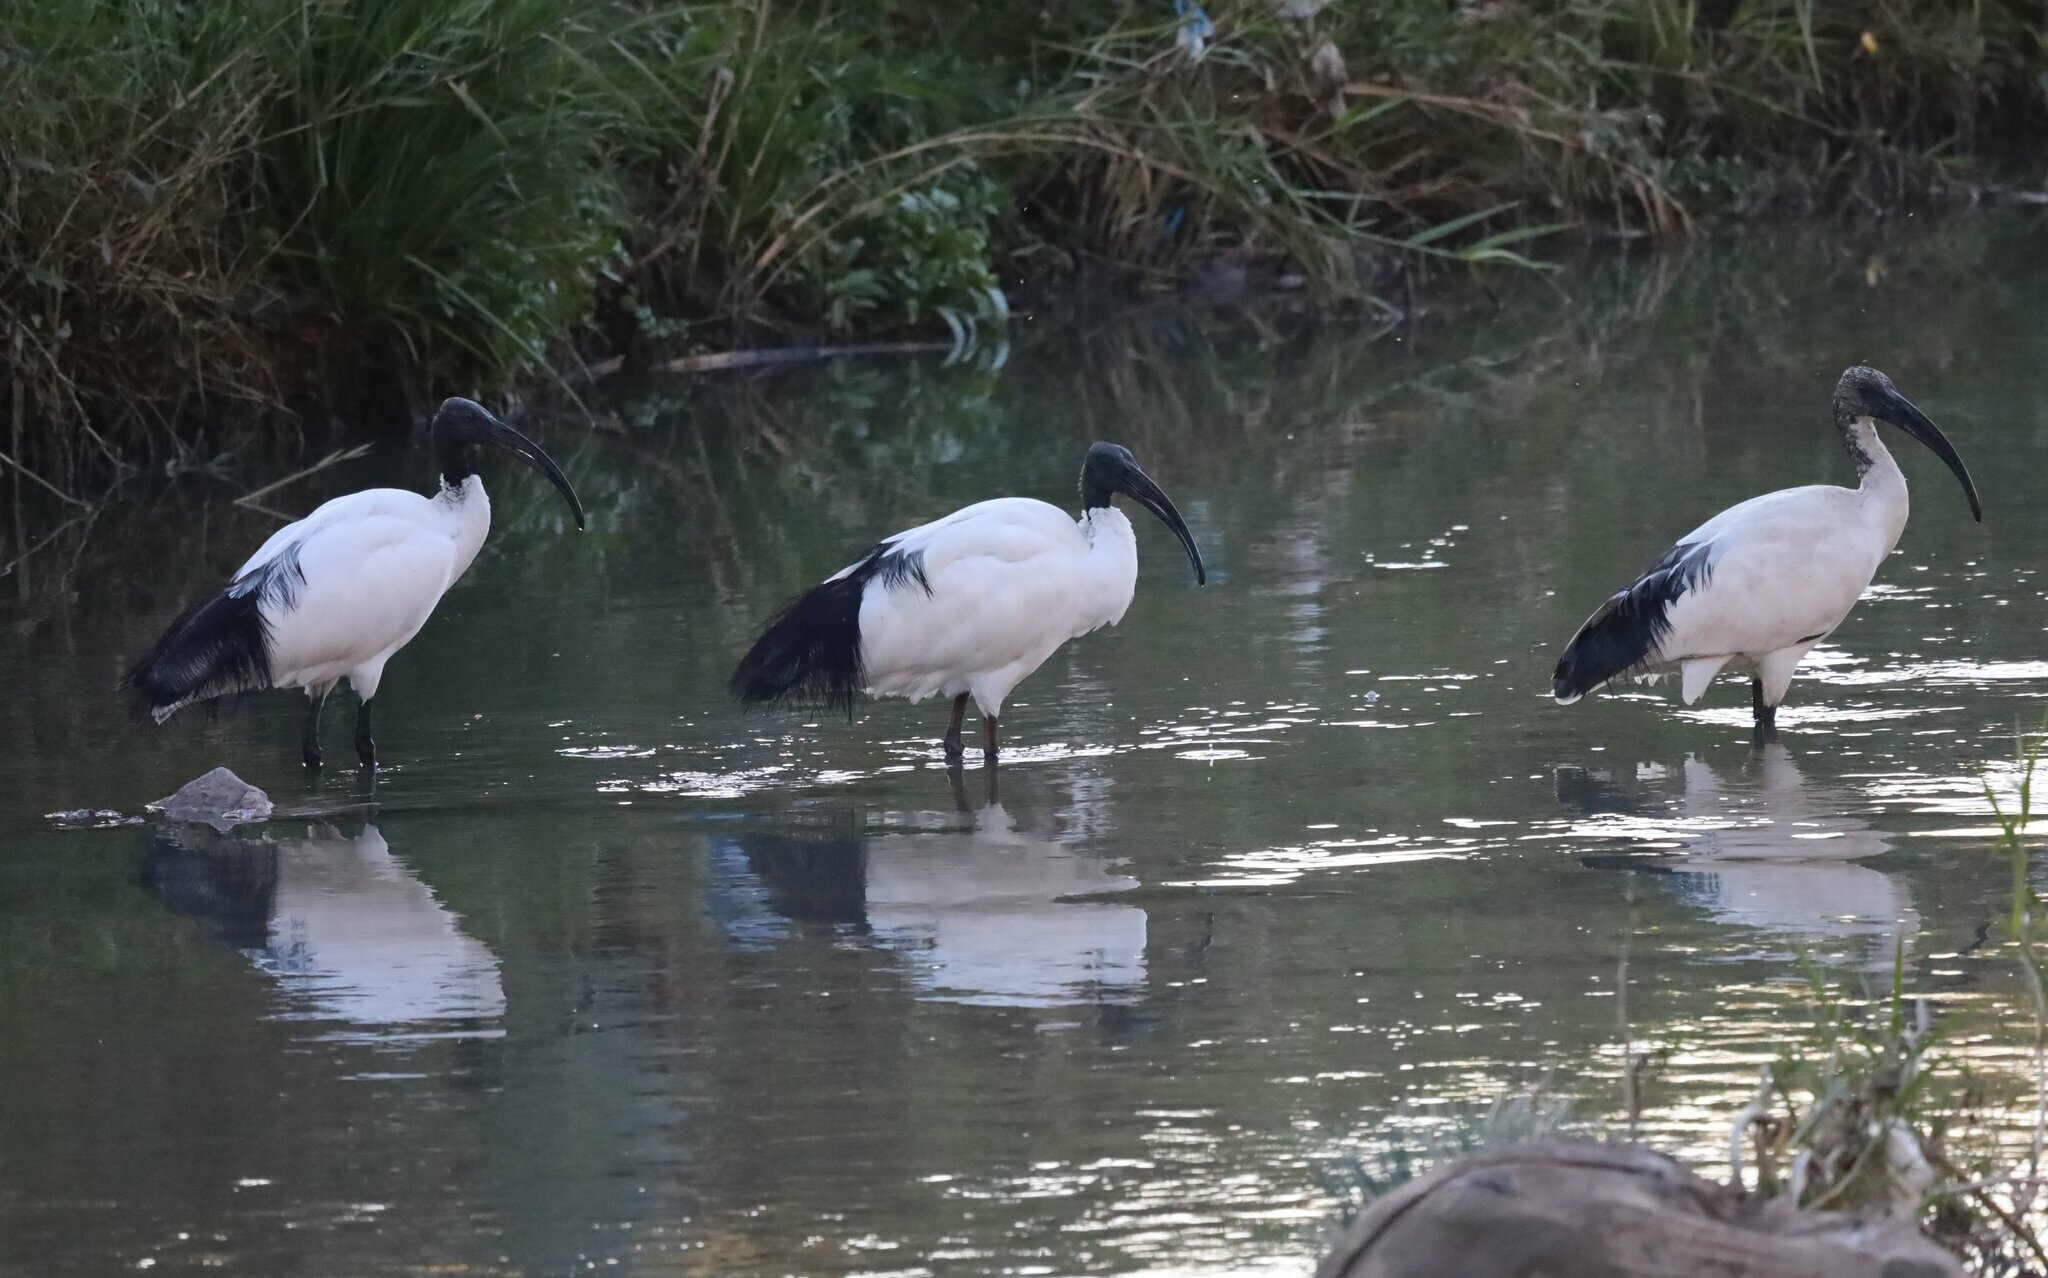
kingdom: Animalia
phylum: Chordata
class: Aves
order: Pelecaniformes
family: Threskiornithidae
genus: Threskiornis
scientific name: Threskiornis aethiopicus
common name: Sacred ibis
